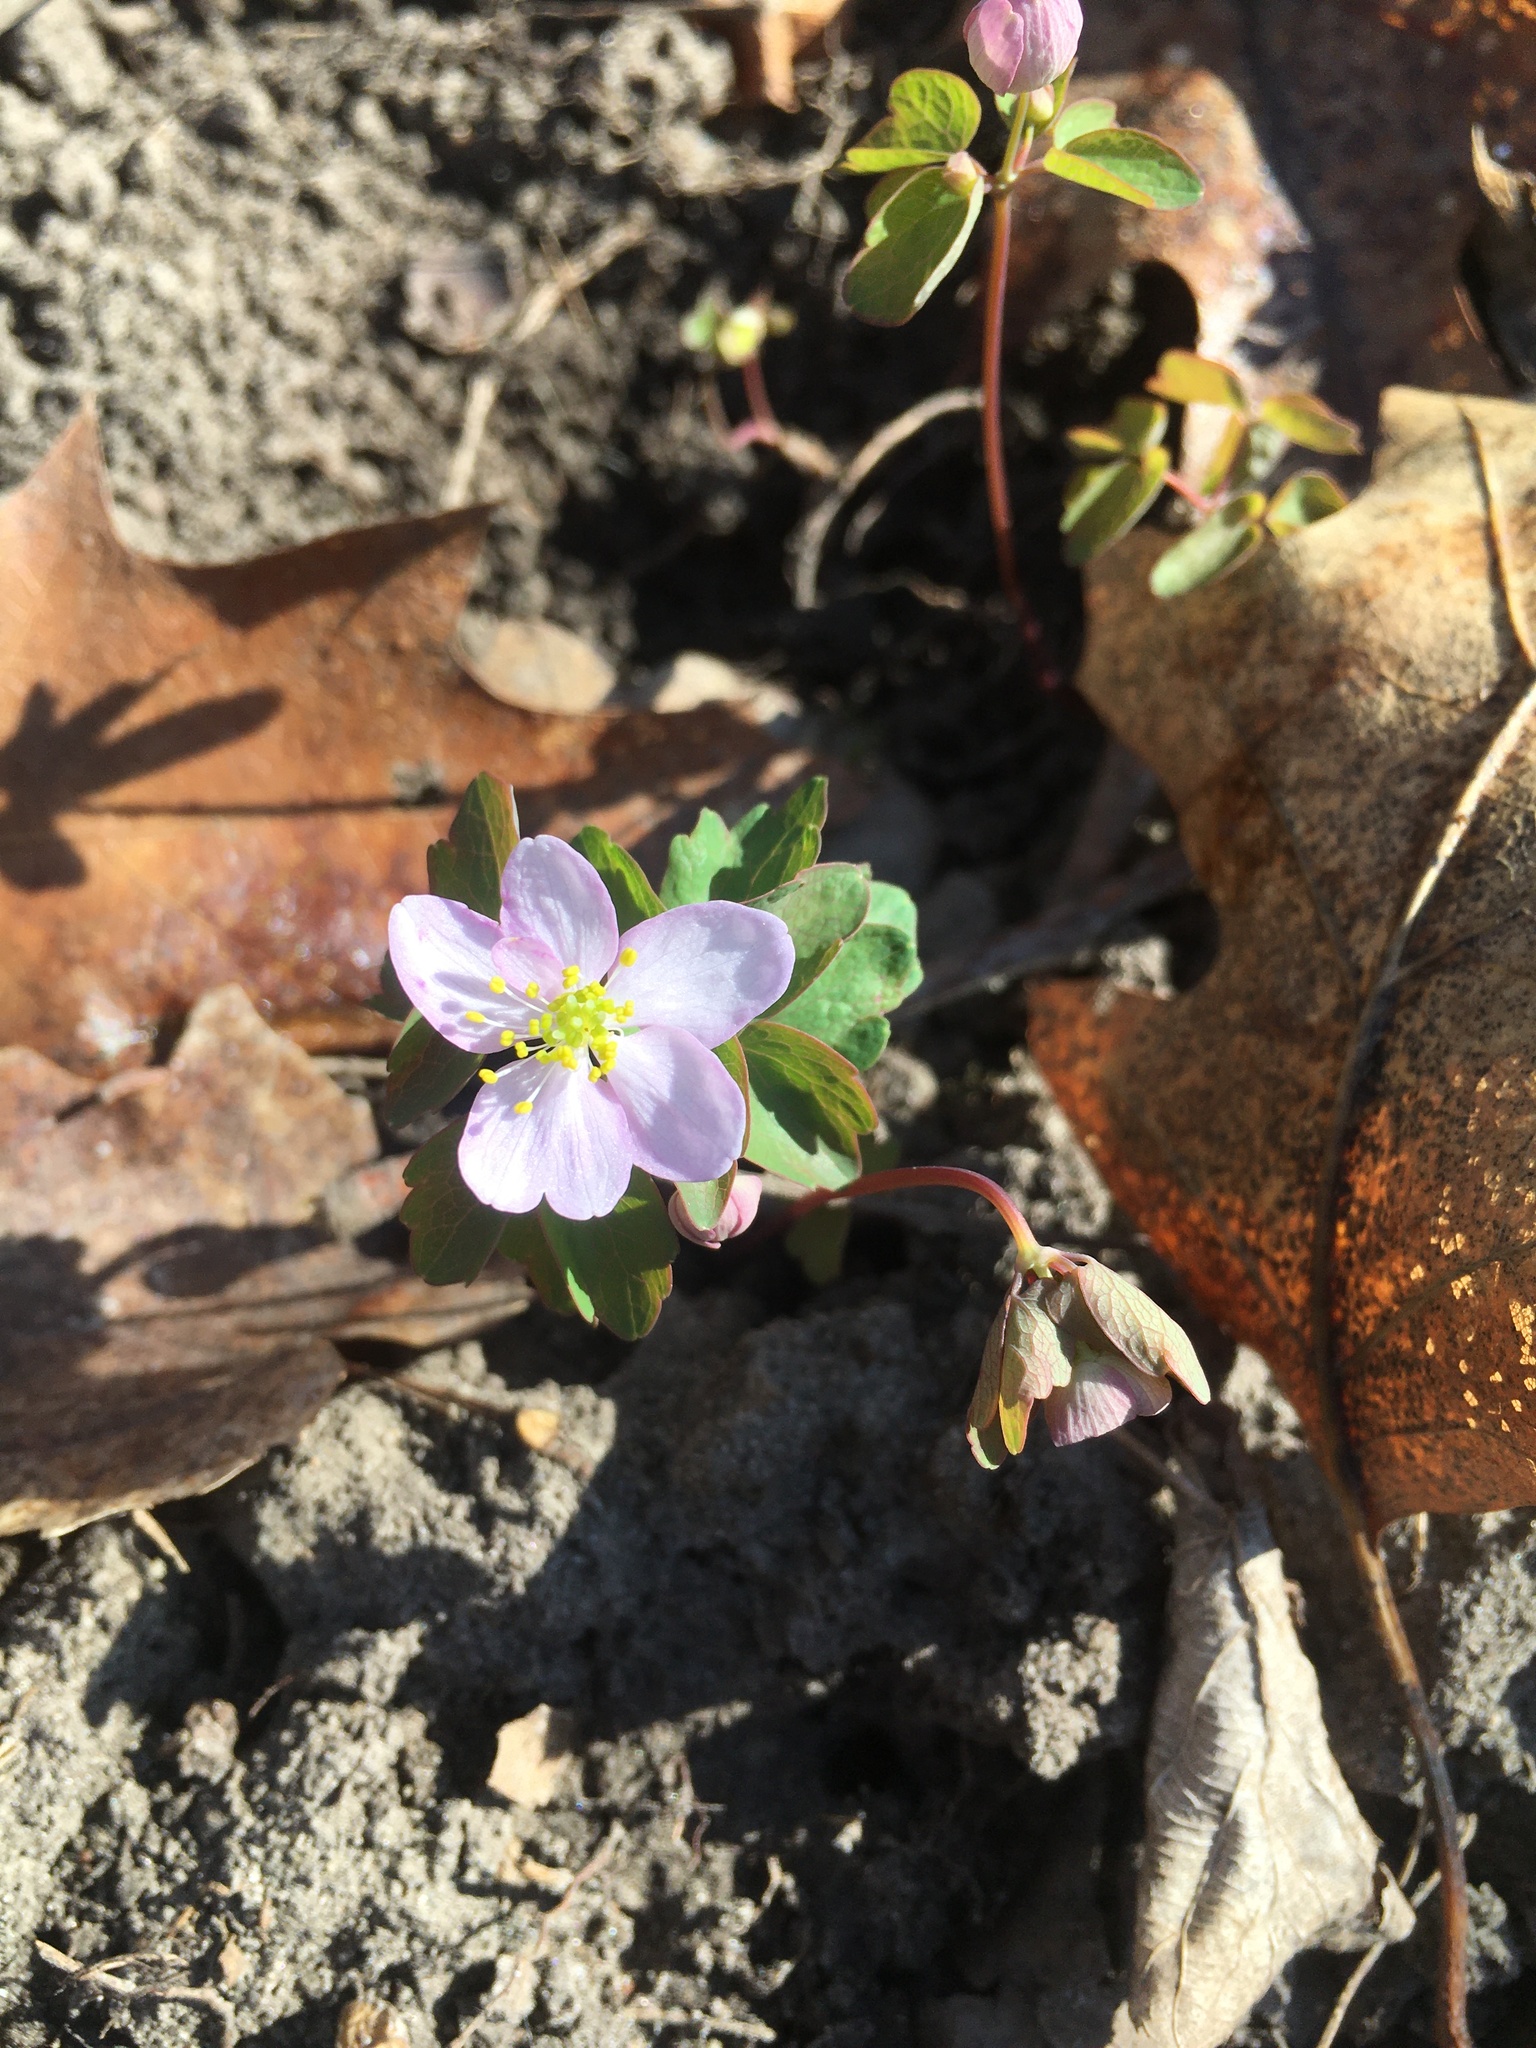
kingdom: Plantae
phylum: Tracheophyta
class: Magnoliopsida
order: Ranunculales
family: Ranunculaceae
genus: Thalictrum
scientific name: Thalictrum thalictroides
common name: Rue-anemone
